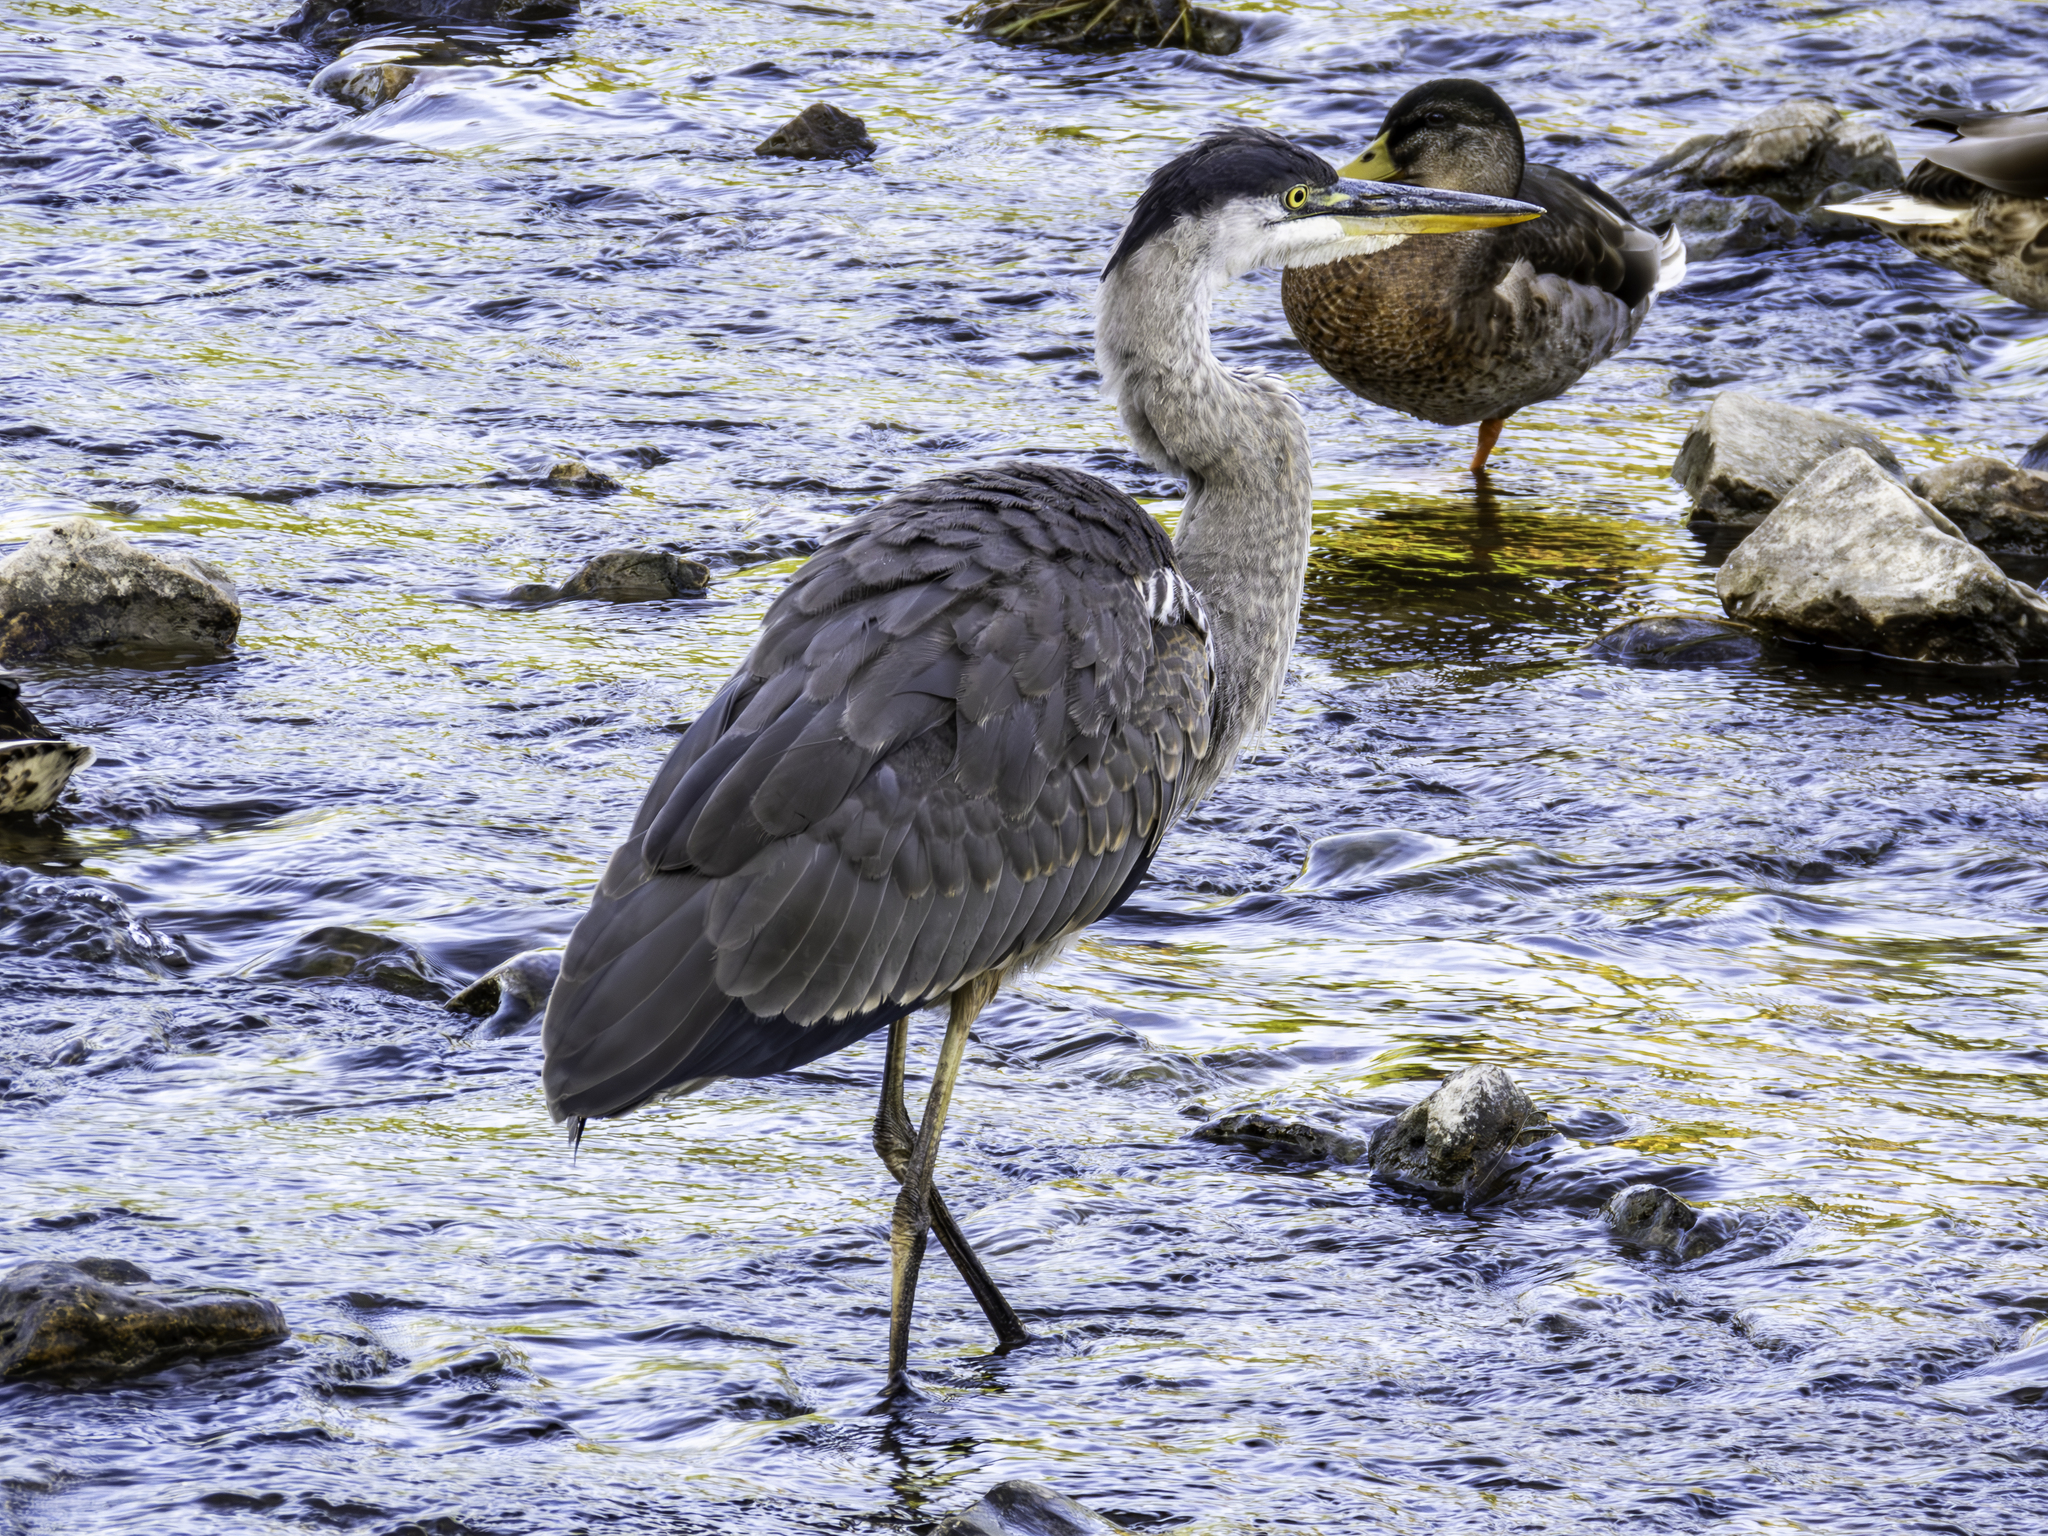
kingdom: Animalia
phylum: Chordata
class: Aves
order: Pelecaniformes
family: Ardeidae
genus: Ardea
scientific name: Ardea herodias
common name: Great blue heron
